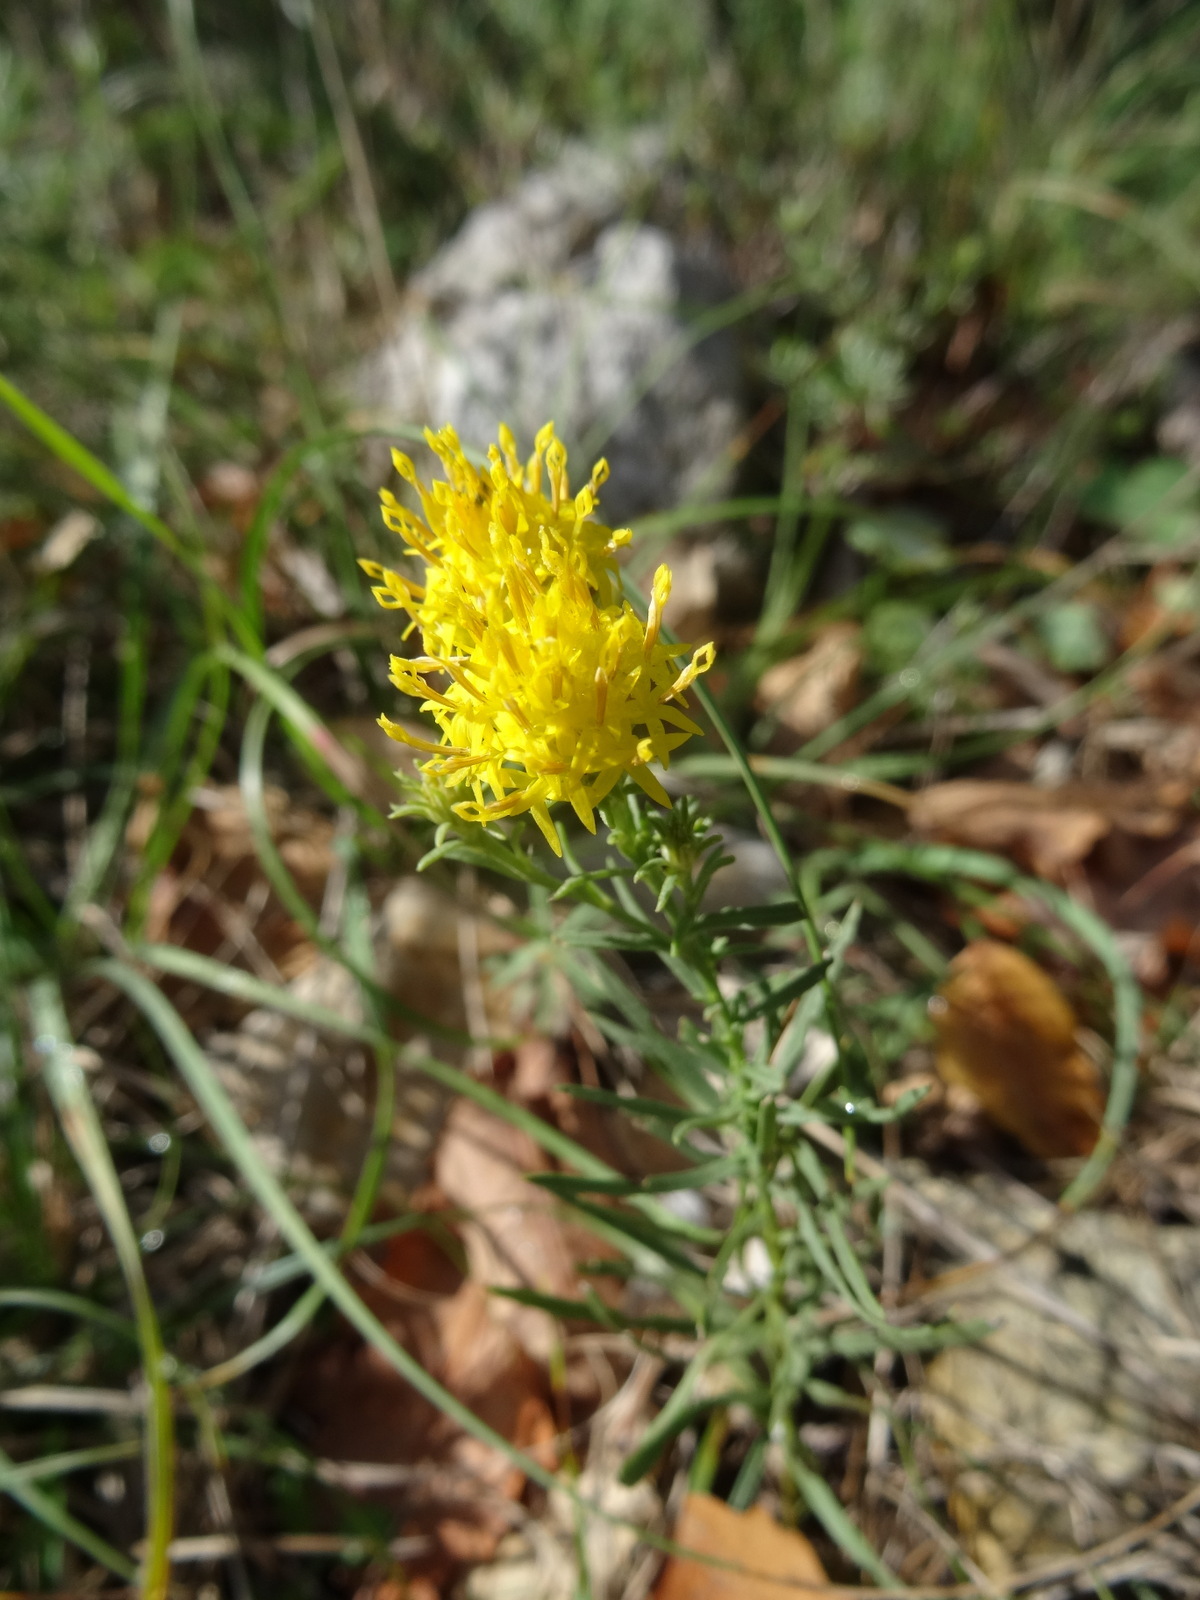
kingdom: Plantae
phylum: Tracheophyta
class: Magnoliopsida
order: Asterales
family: Asteraceae
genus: Galatella
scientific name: Galatella linosyris
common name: Goldilocks aster
